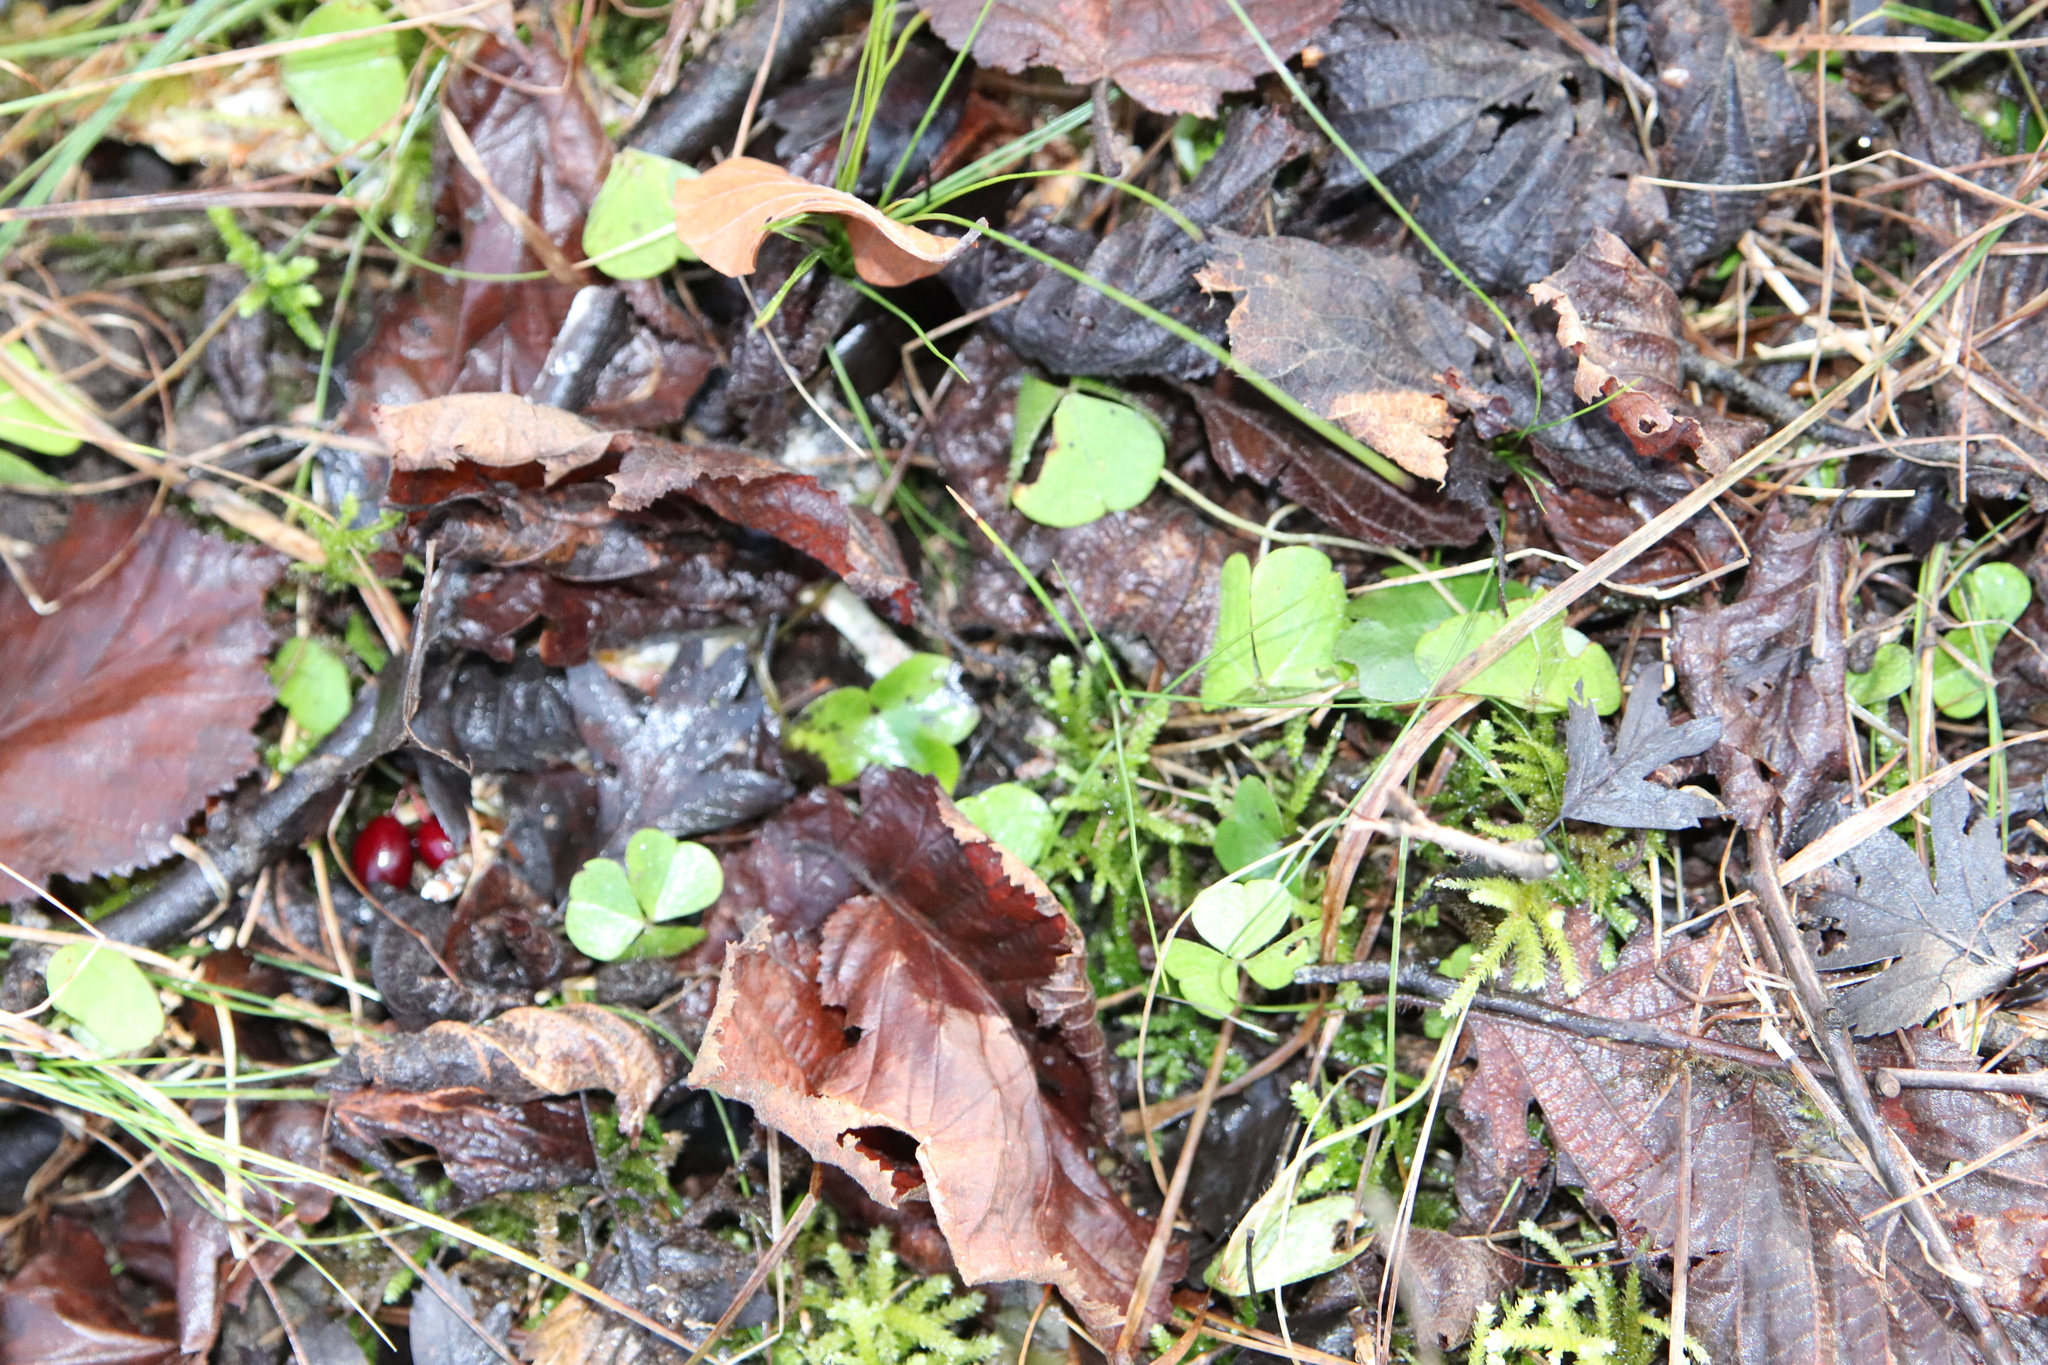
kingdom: Plantae
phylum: Tracheophyta
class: Magnoliopsida
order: Oxalidales
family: Oxalidaceae
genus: Oxalis
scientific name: Oxalis acetosella
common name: Wood-sorrel
